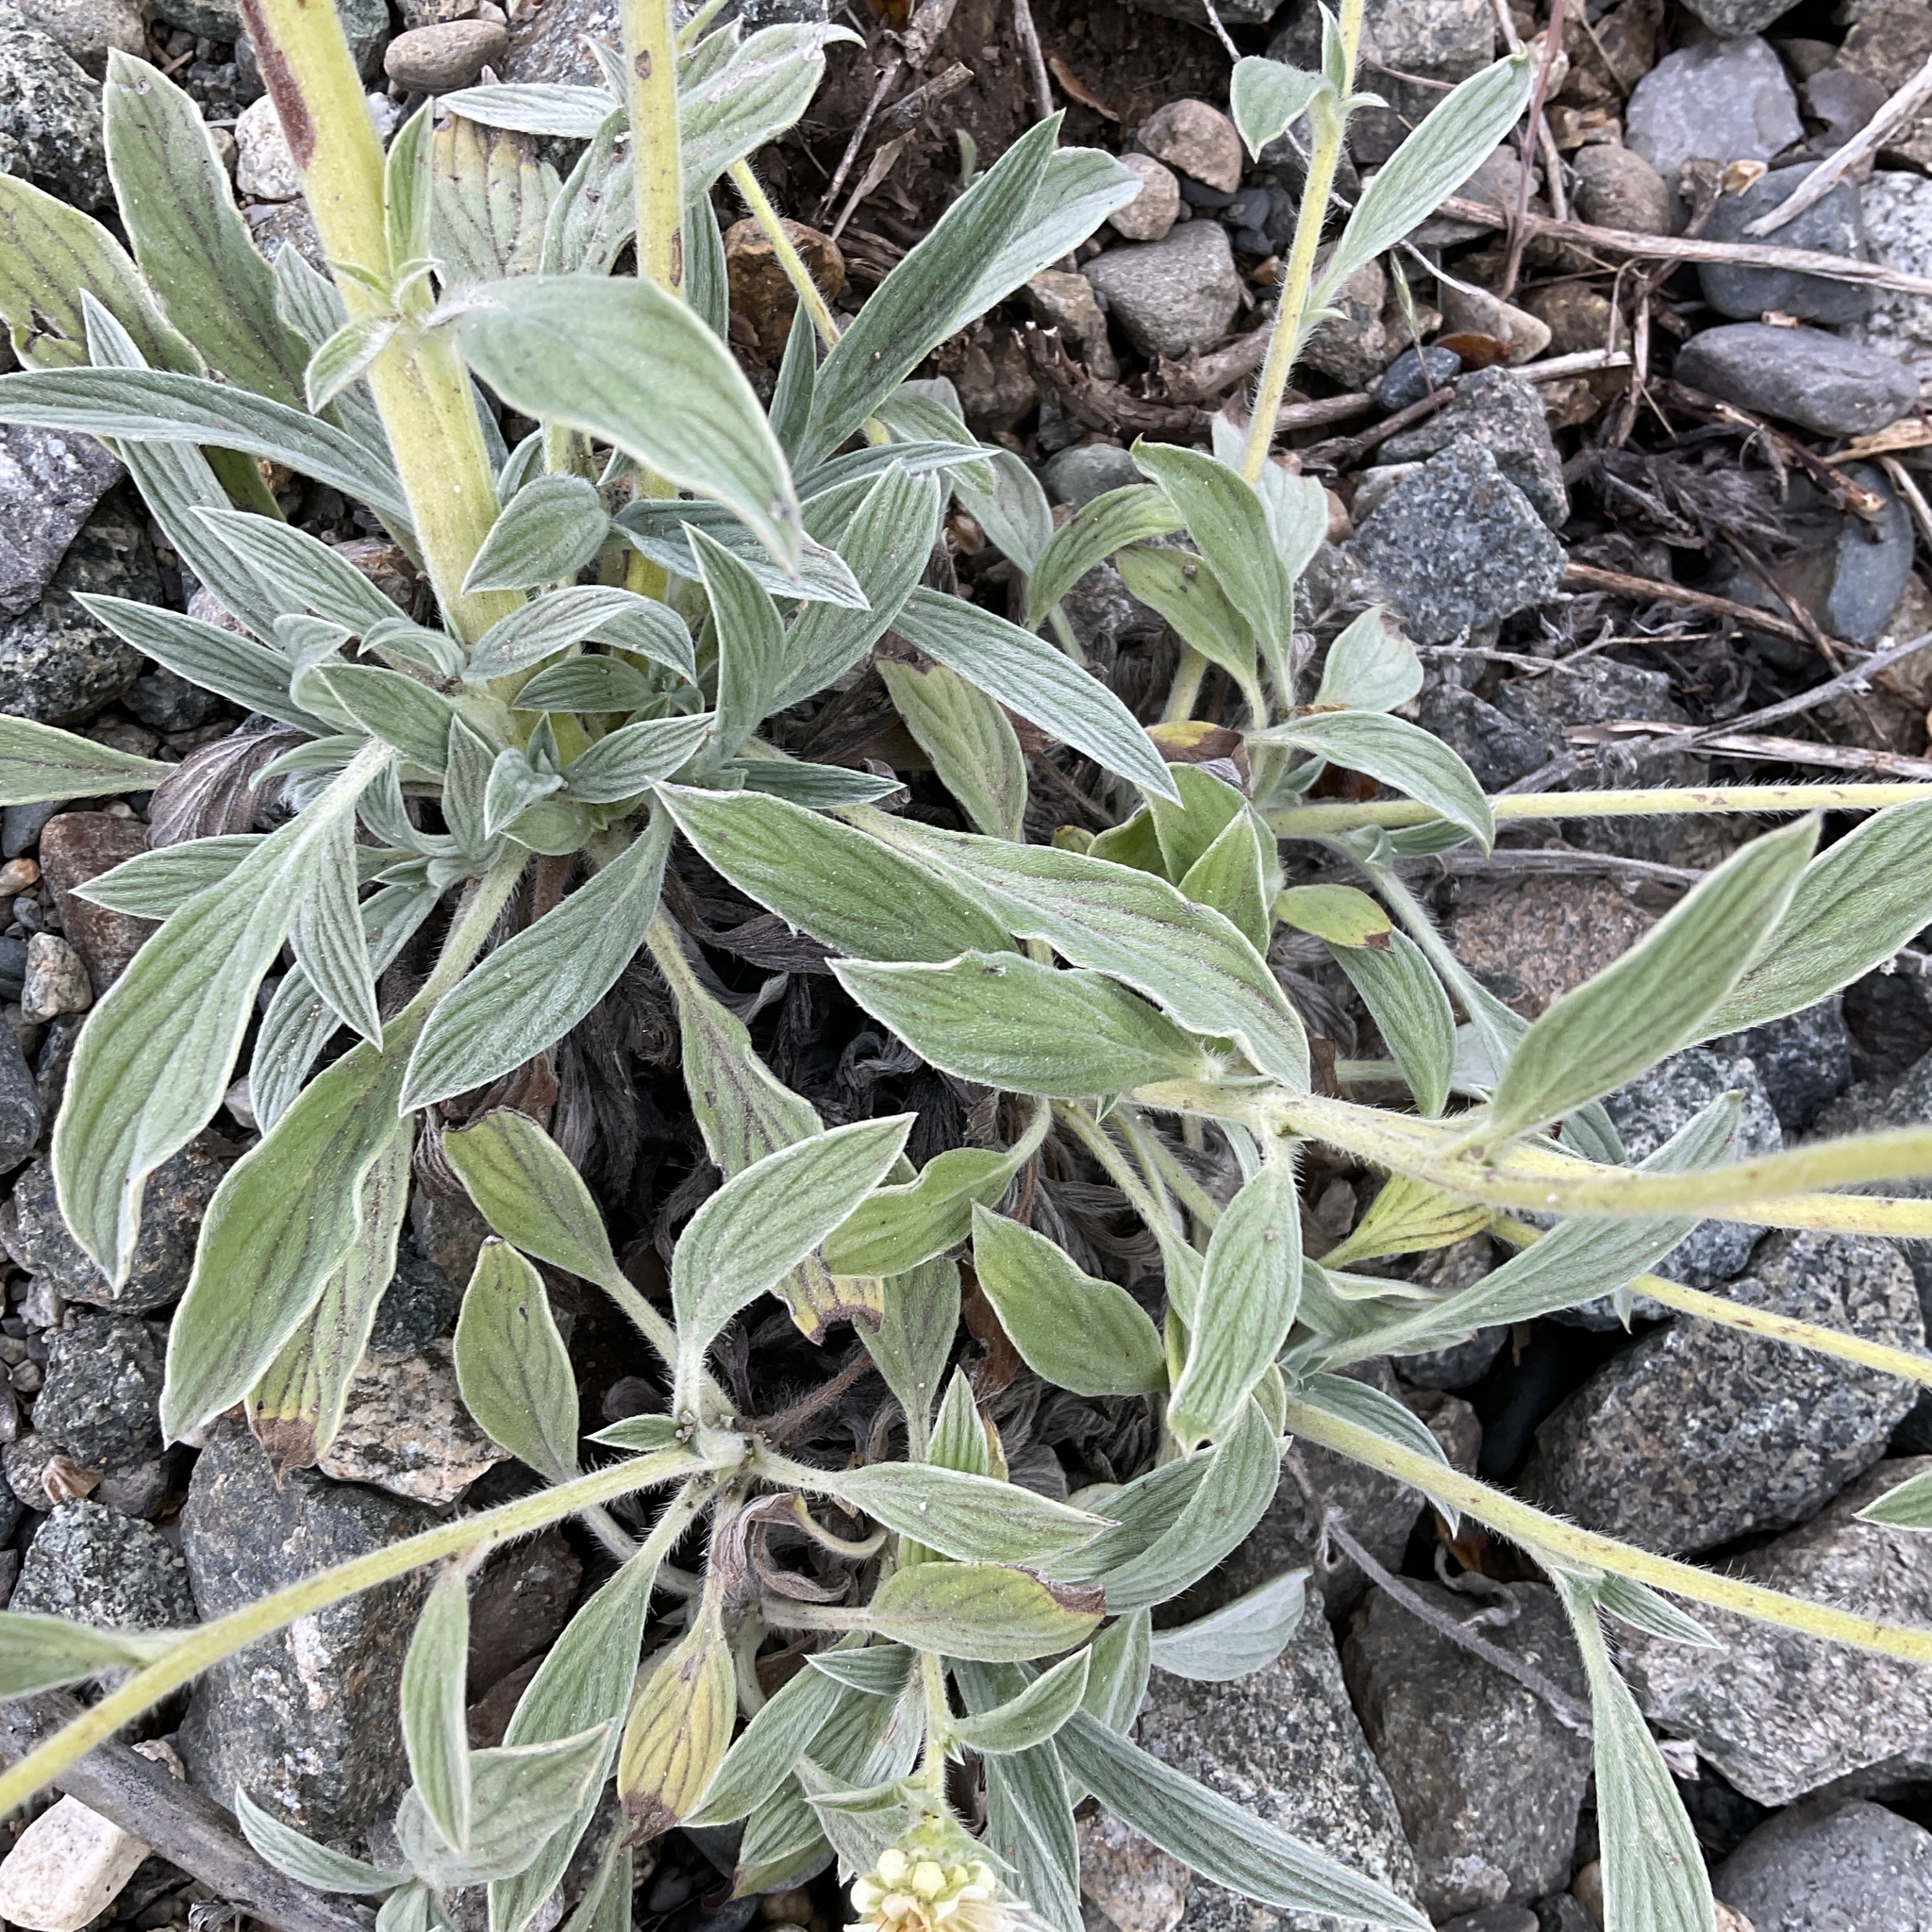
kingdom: Plantae
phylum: Tracheophyta
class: Magnoliopsida
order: Boraginales
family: Hydrophyllaceae
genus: Phacelia
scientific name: Phacelia hastata
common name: Silver-leaved phacelia
